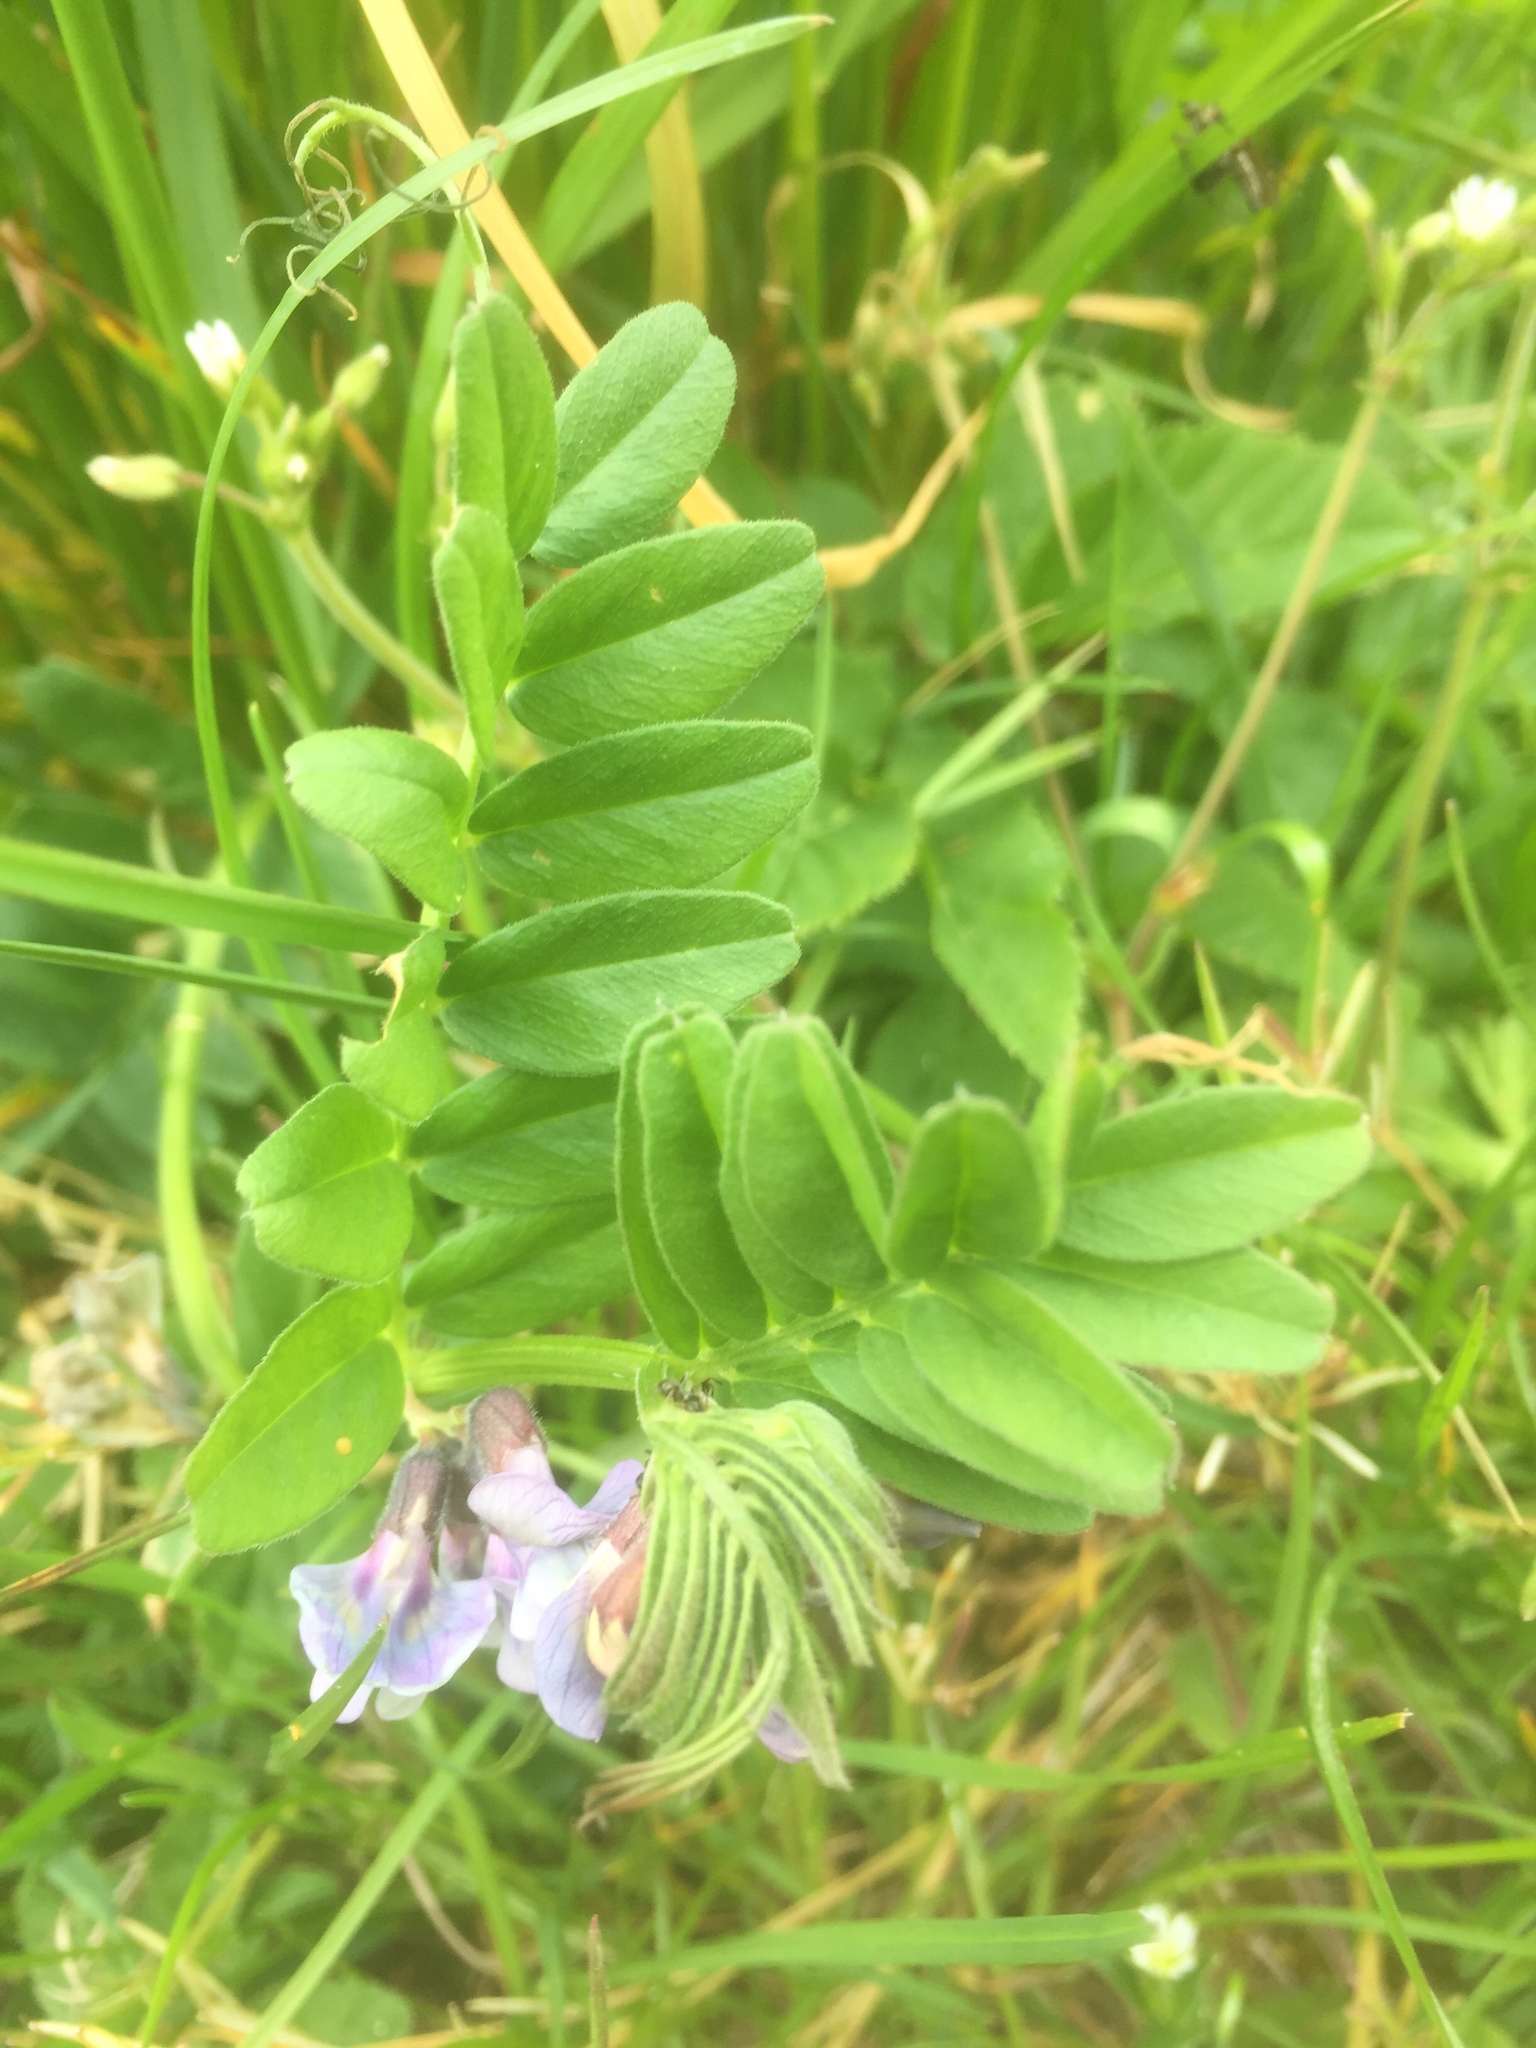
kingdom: Plantae
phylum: Tracheophyta
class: Magnoliopsida
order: Fabales
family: Fabaceae
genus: Vicia
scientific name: Vicia sepium
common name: Bush vetch
